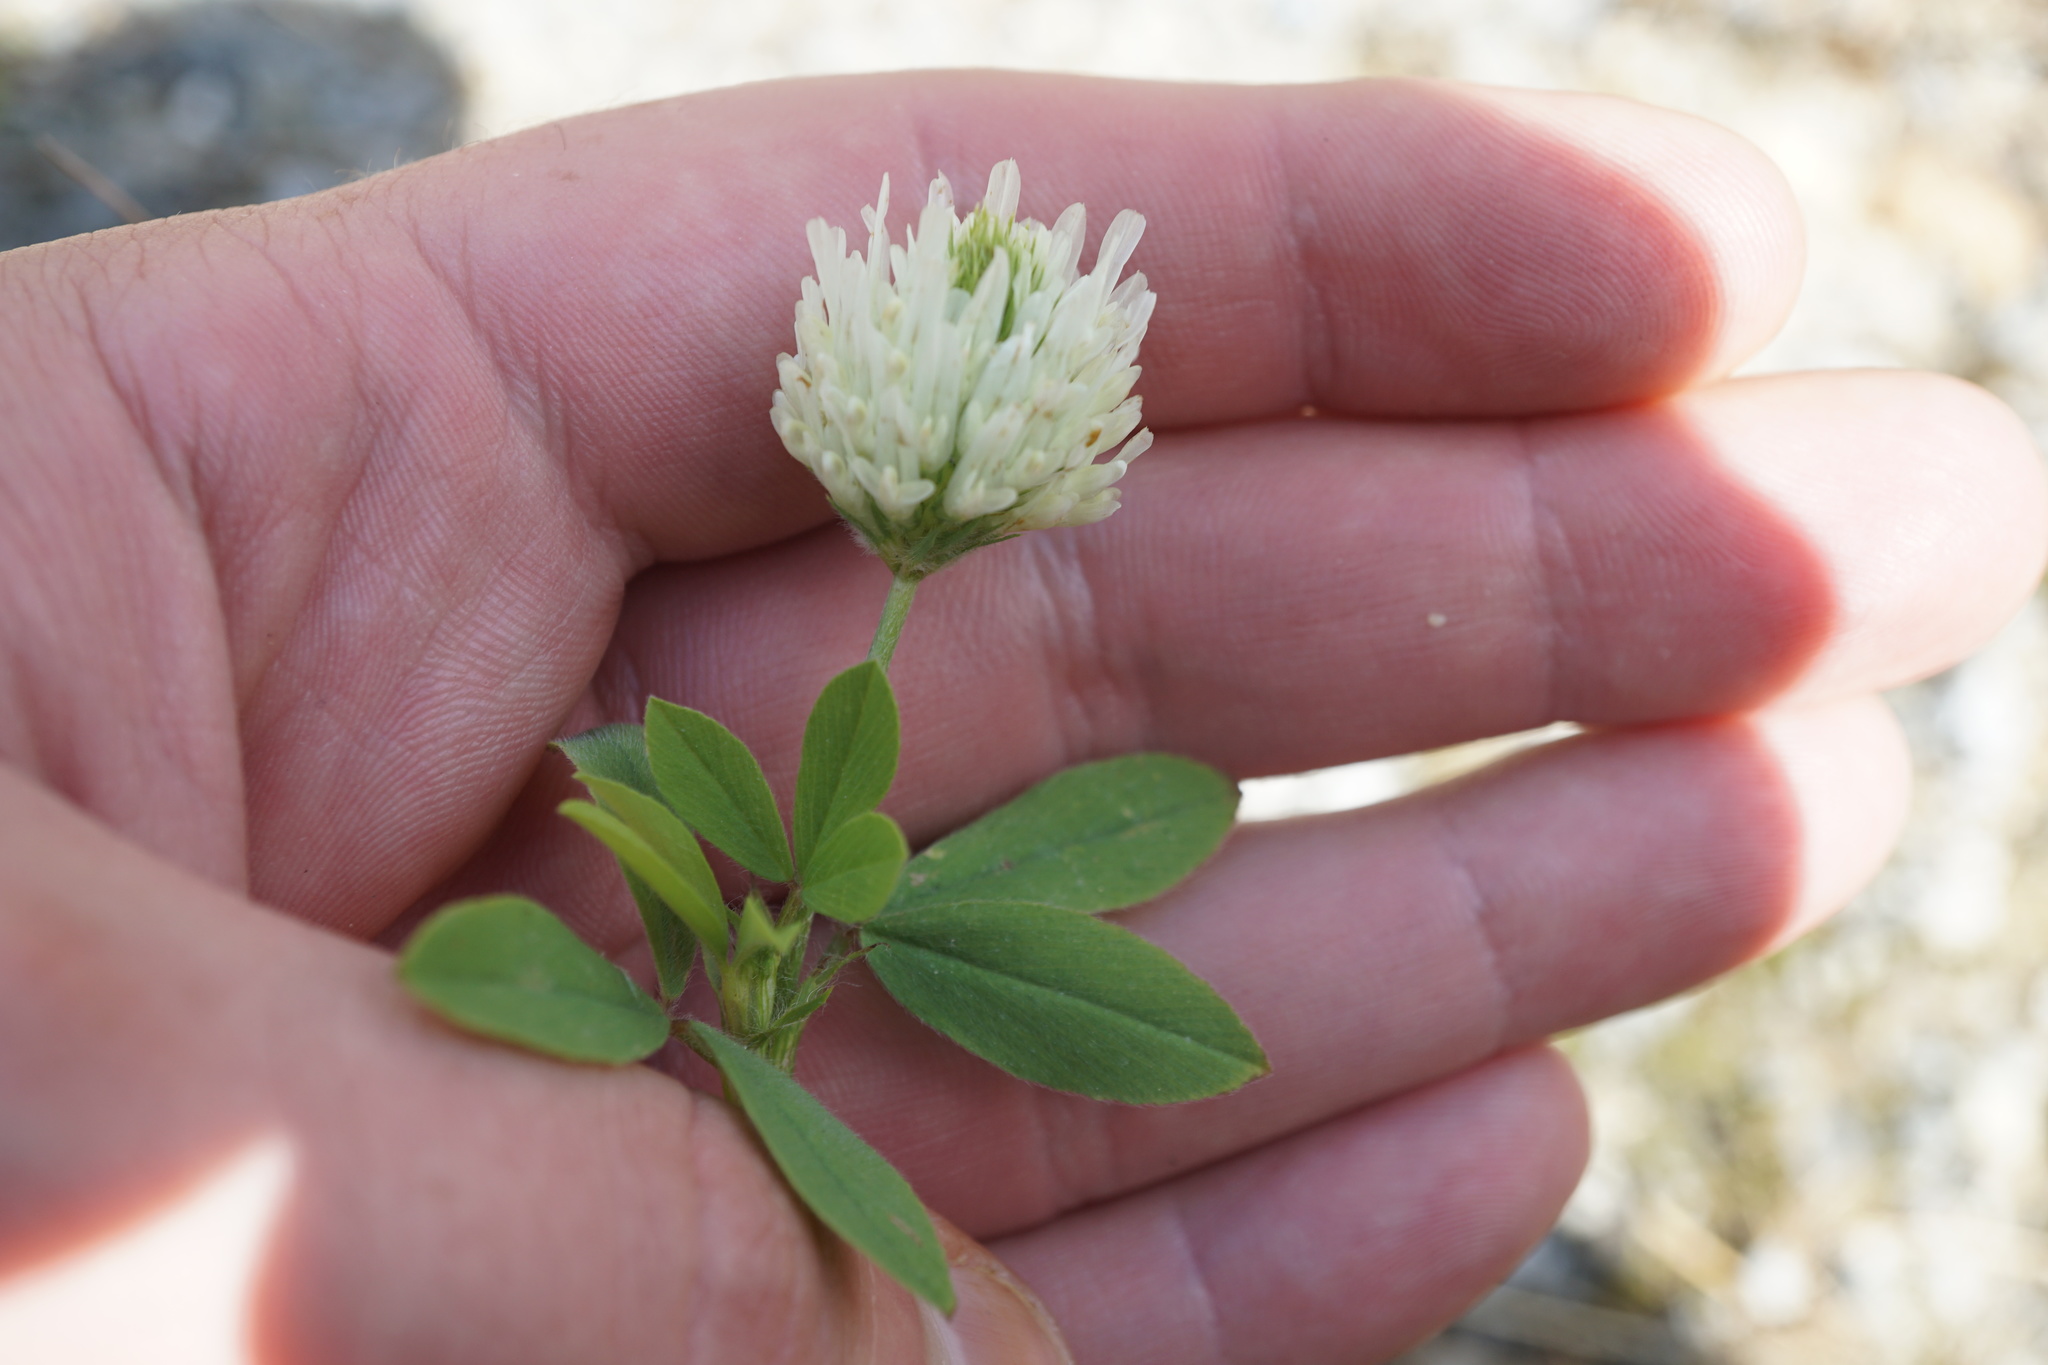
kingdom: Plantae
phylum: Tracheophyta
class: Magnoliopsida
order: Fabales
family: Fabaceae
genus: Trifolium
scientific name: Trifolium montanum
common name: Mountain clover
